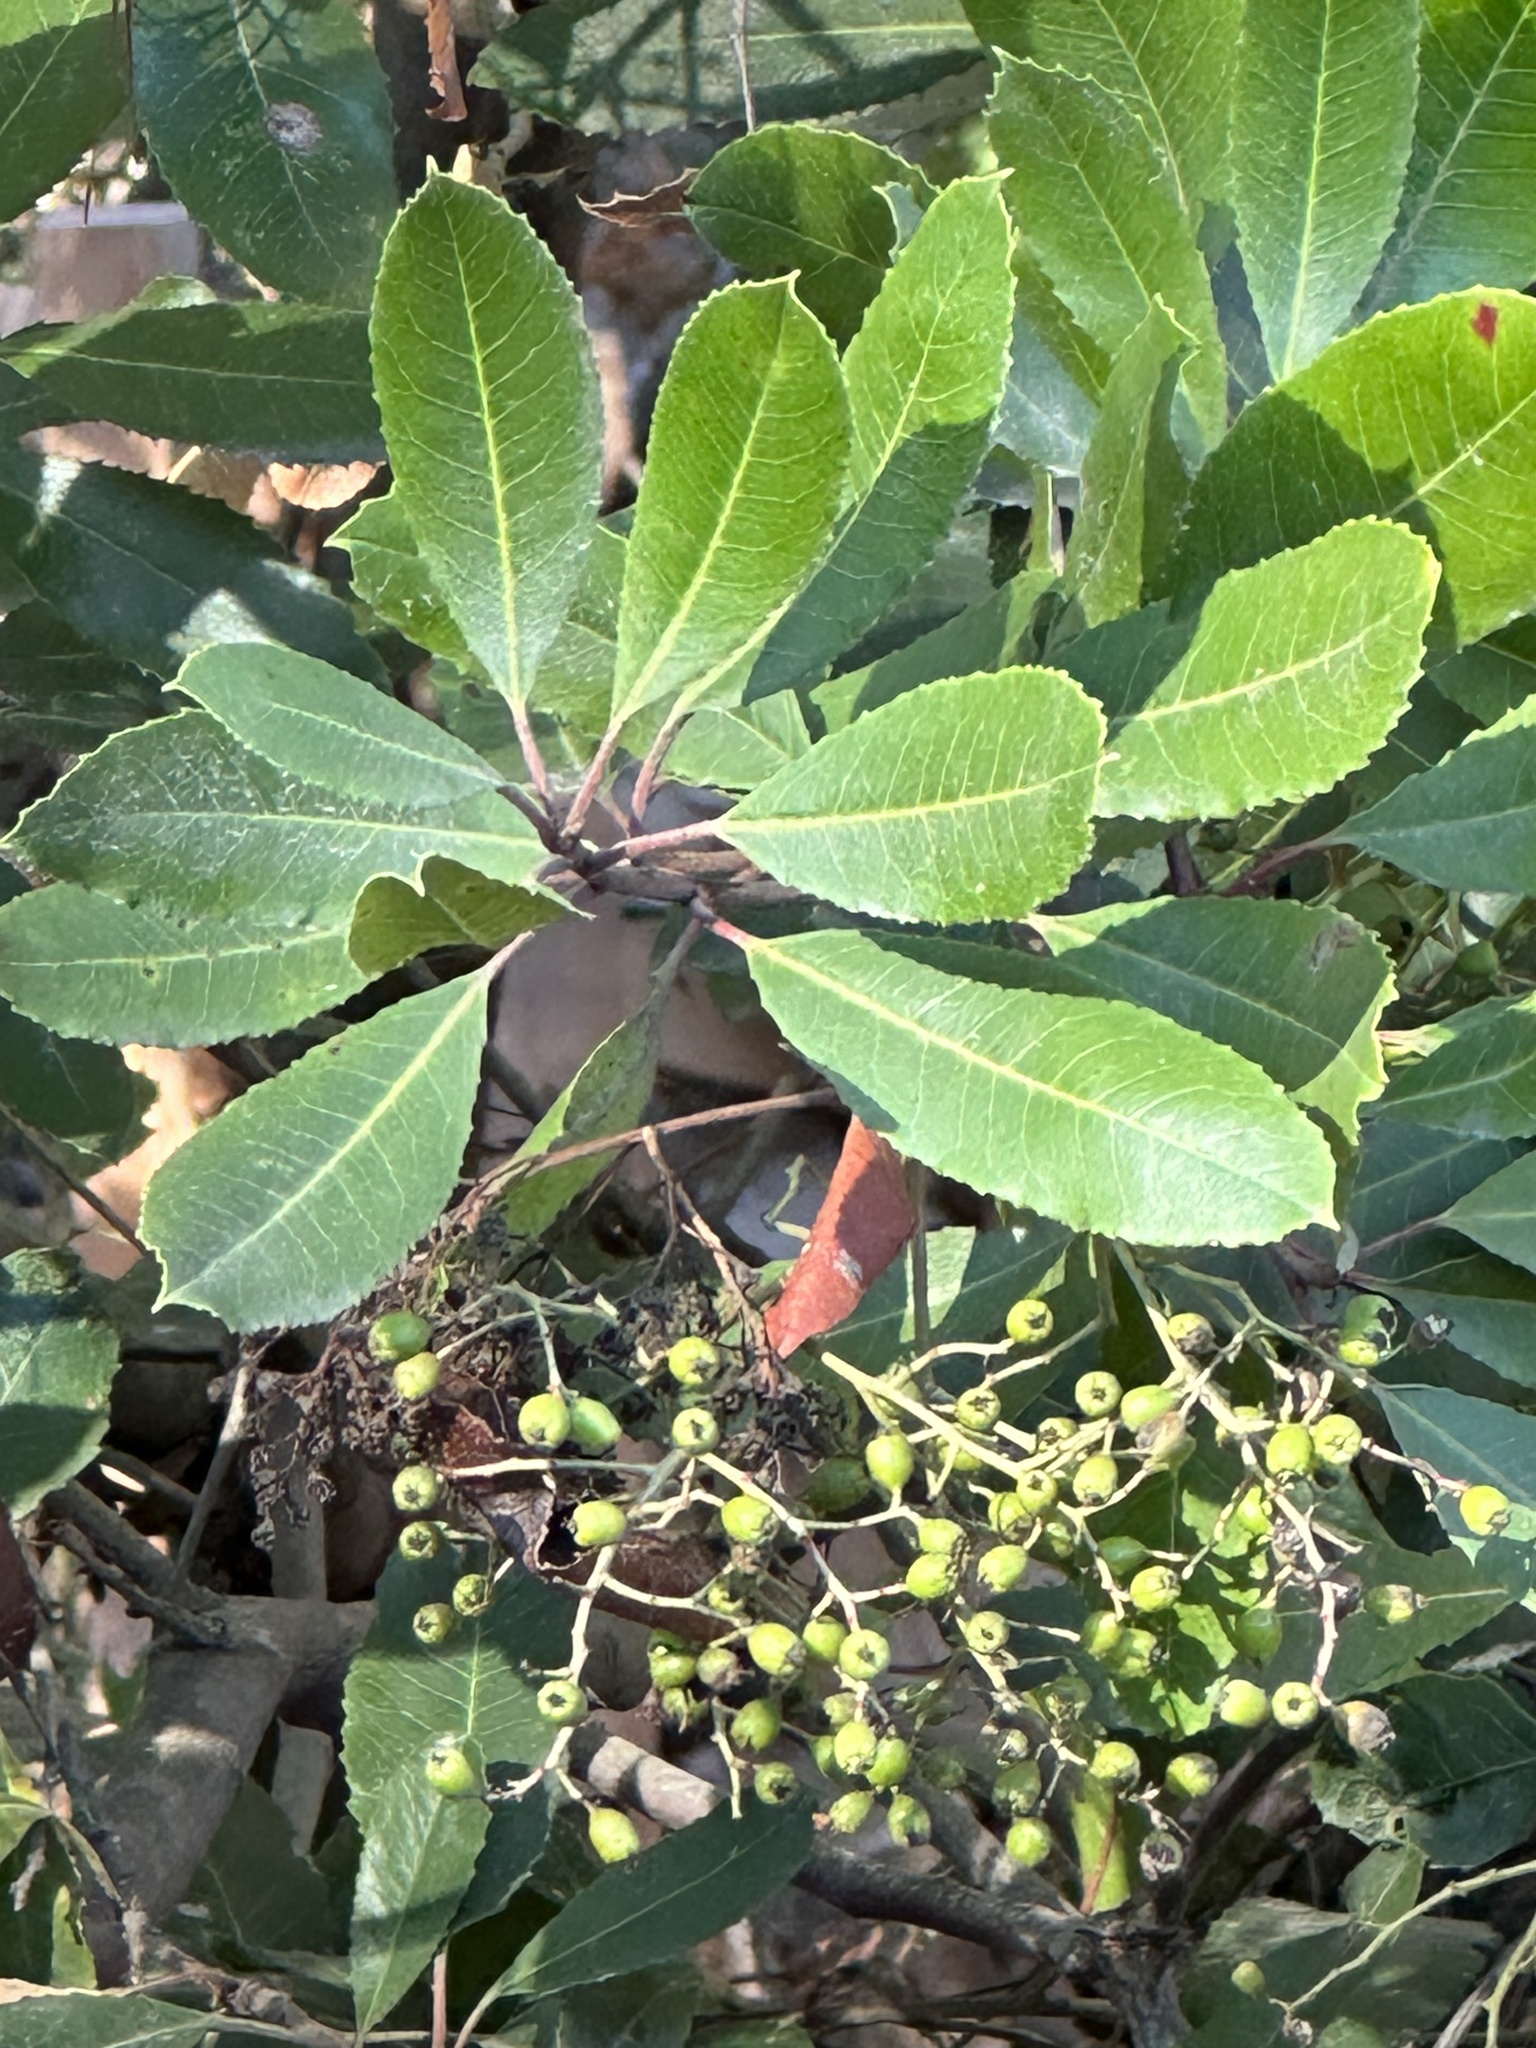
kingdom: Plantae
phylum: Tracheophyta
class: Magnoliopsida
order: Rosales
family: Rosaceae
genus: Heteromeles
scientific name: Heteromeles arbutifolia
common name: California-holly
